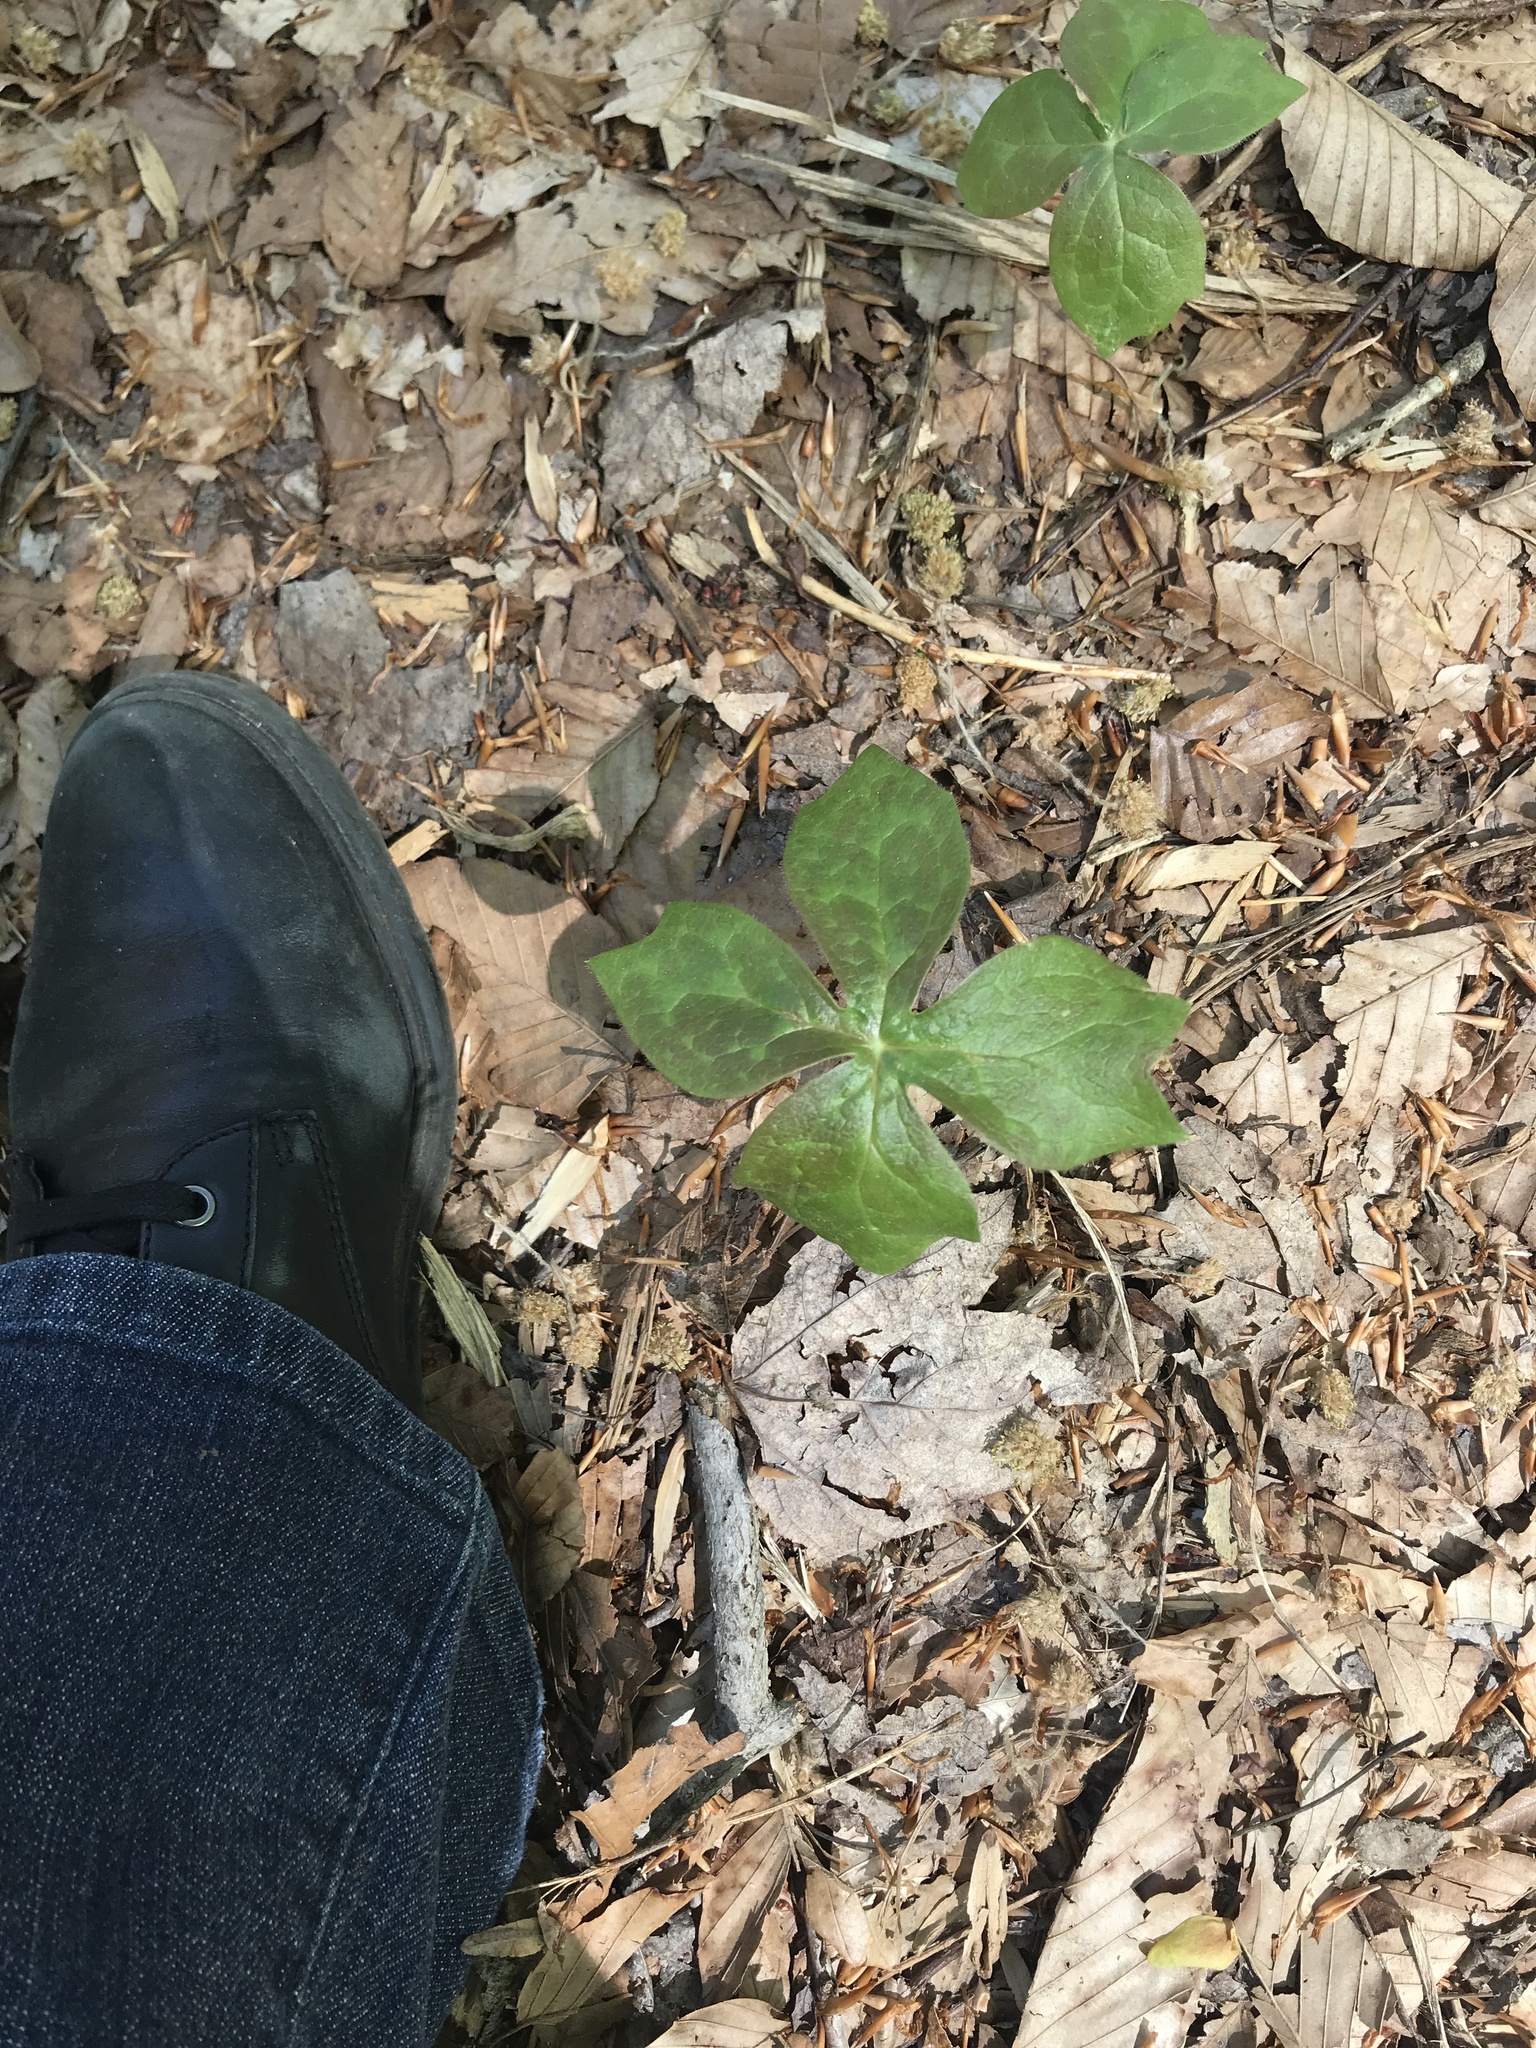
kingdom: Plantae
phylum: Tracheophyta
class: Magnoliopsida
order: Ranunculales
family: Berberidaceae
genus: Podophyllum
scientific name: Podophyllum peltatum
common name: Wild mandrake
